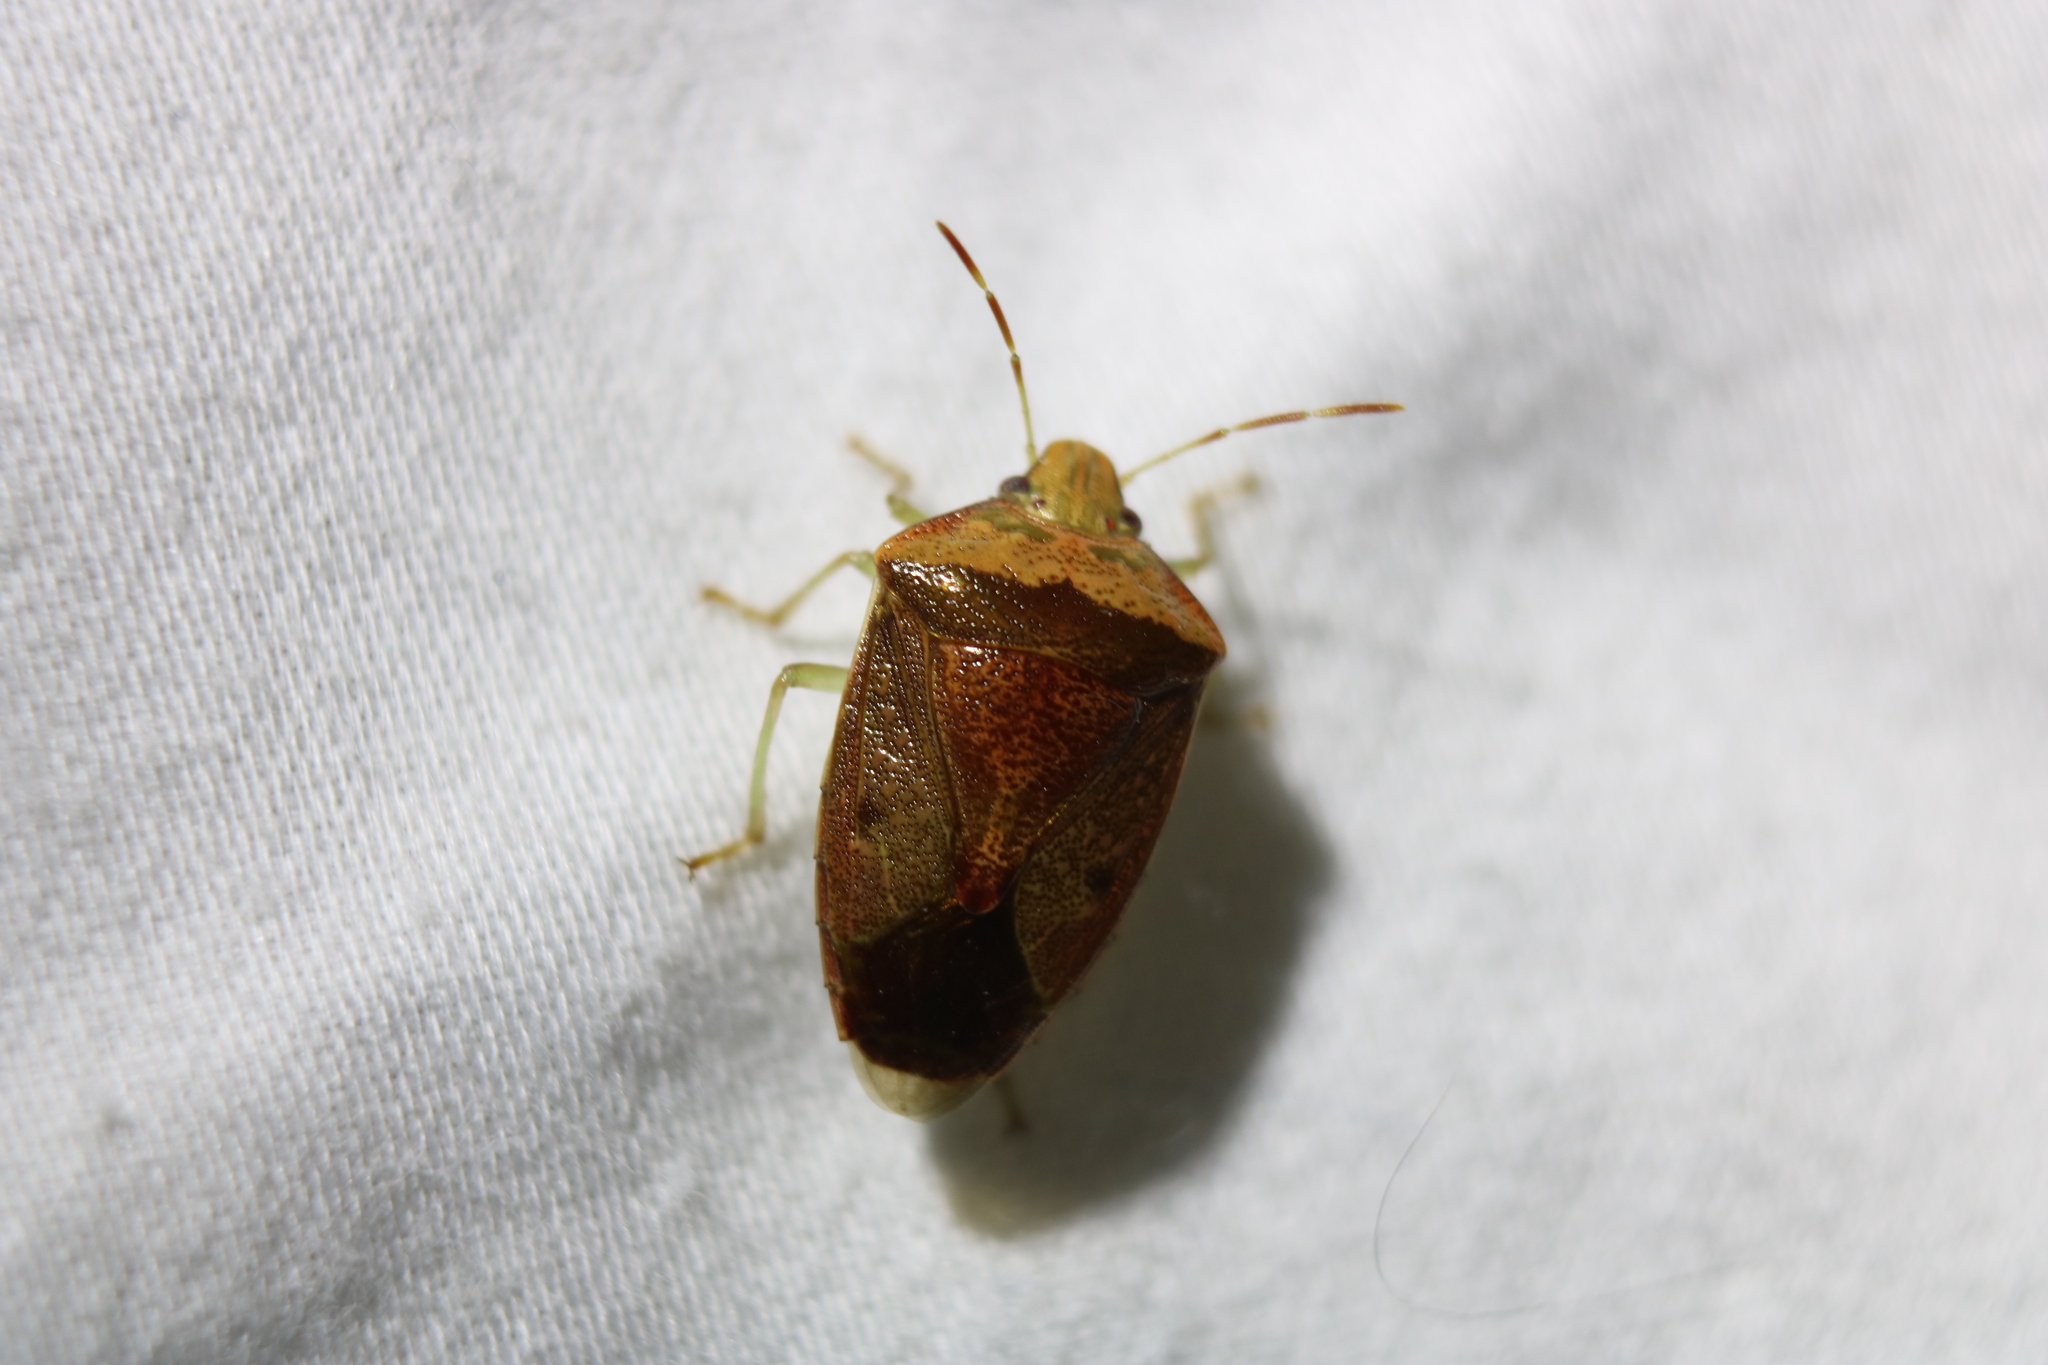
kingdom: Animalia
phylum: Arthropoda
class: Insecta
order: Hemiptera
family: Pentatomidae
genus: Banasa
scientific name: Banasa calva
